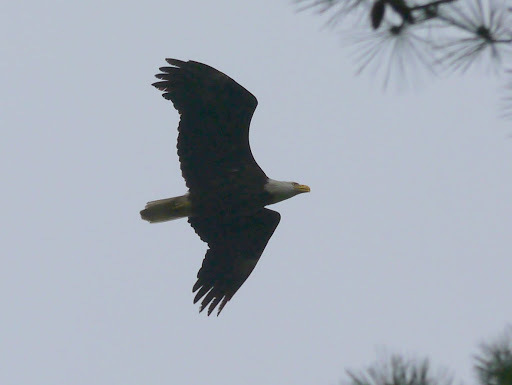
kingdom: Animalia
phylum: Chordata
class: Aves
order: Accipitriformes
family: Accipitridae
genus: Haliaeetus
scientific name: Haliaeetus leucocephalus
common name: Bald eagle
